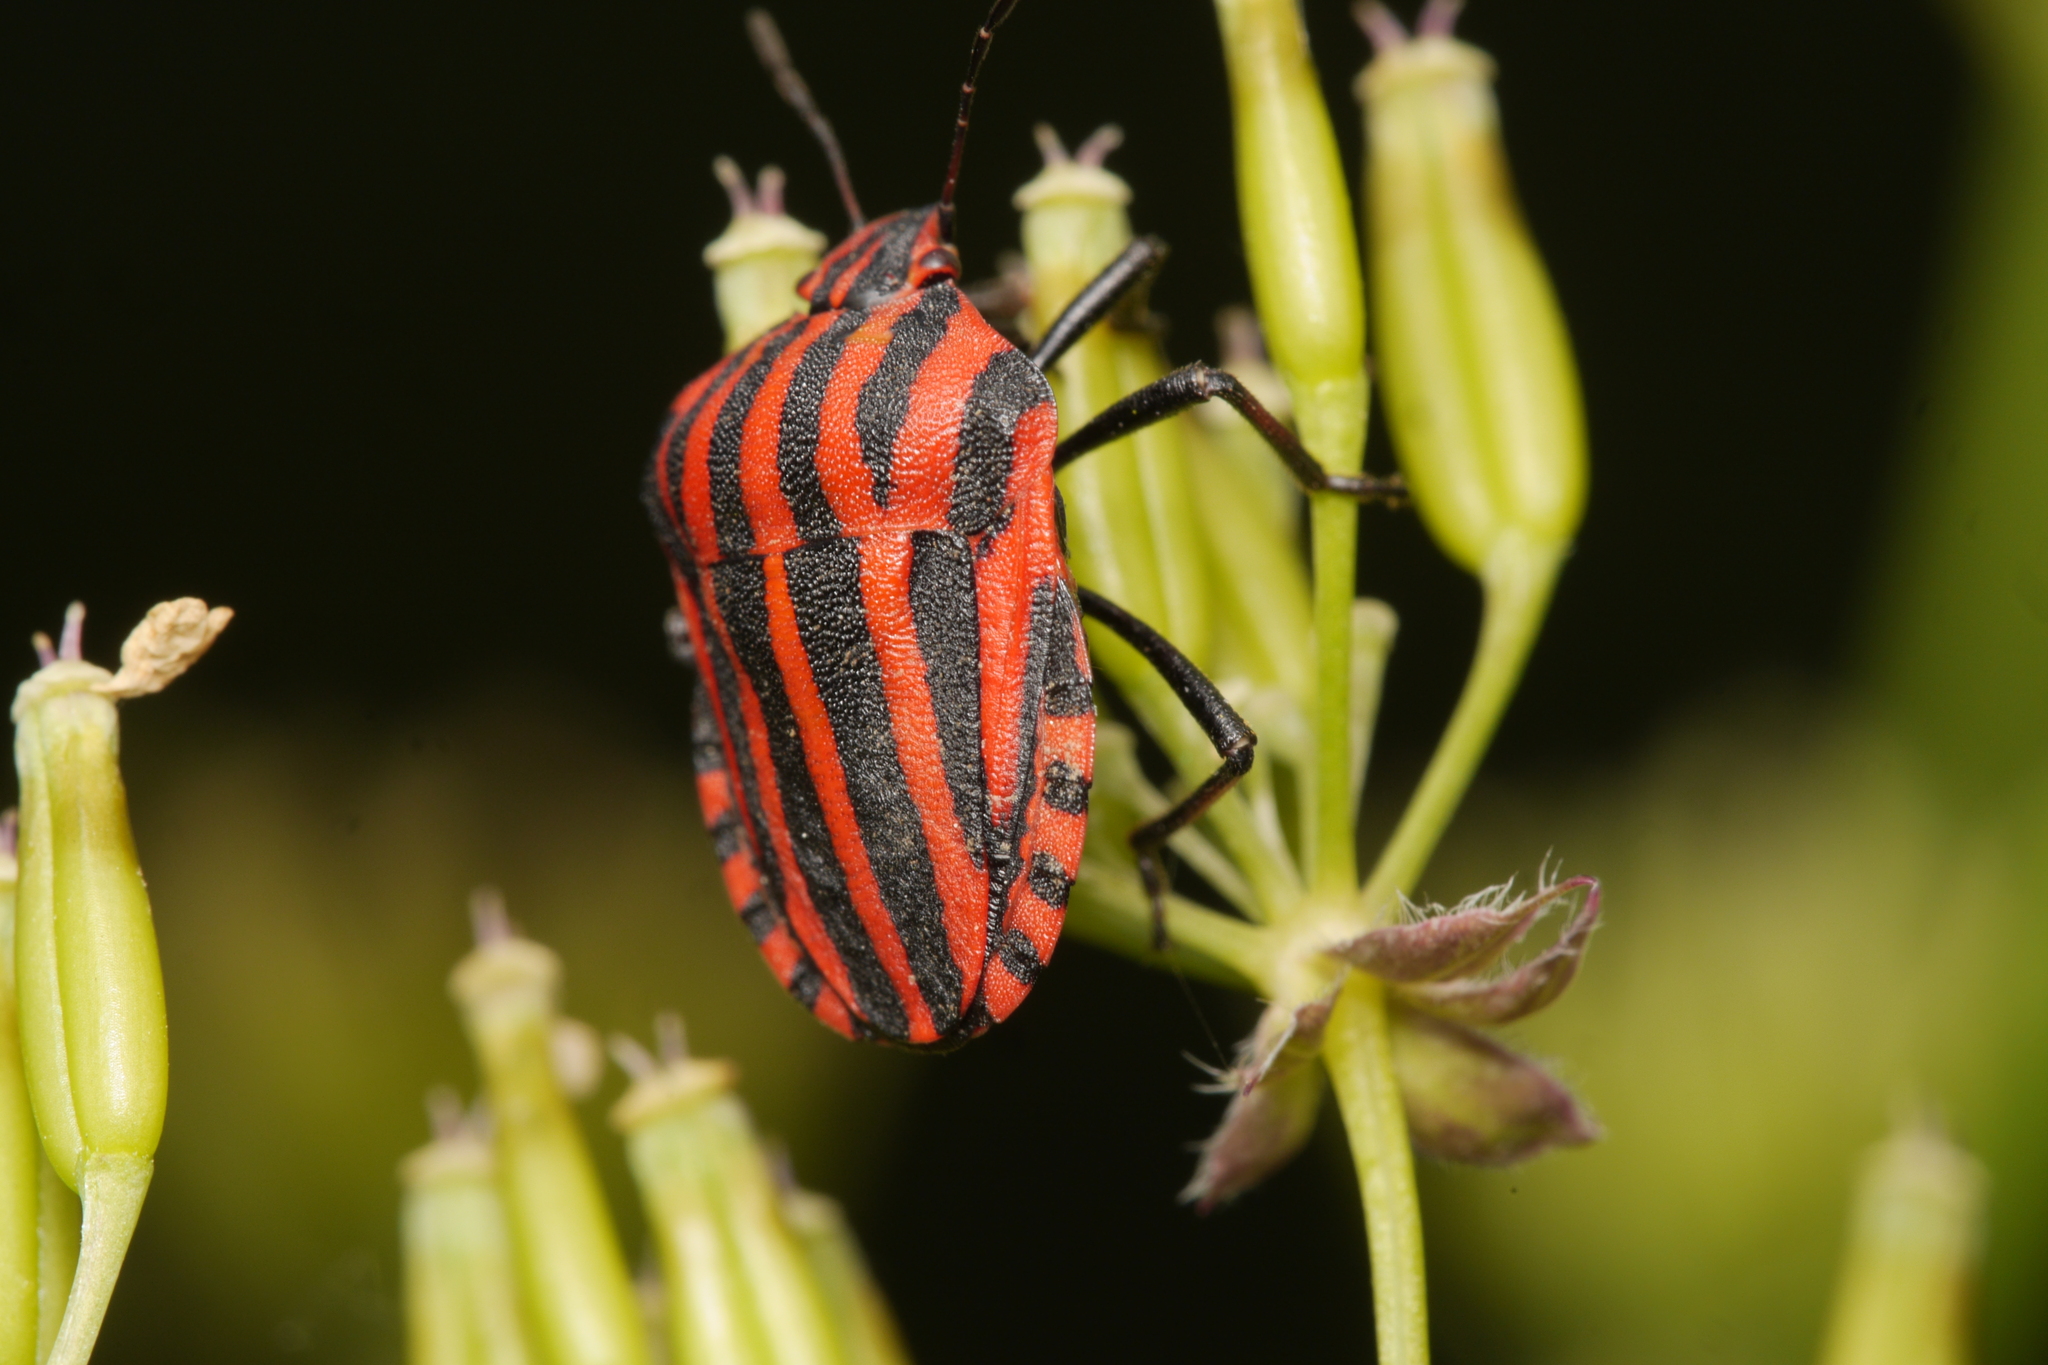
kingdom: Animalia
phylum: Arthropoda
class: Insecta
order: Hemiptera
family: Pentatomidae
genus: Graphosoma
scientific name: Graphosoma italicum
